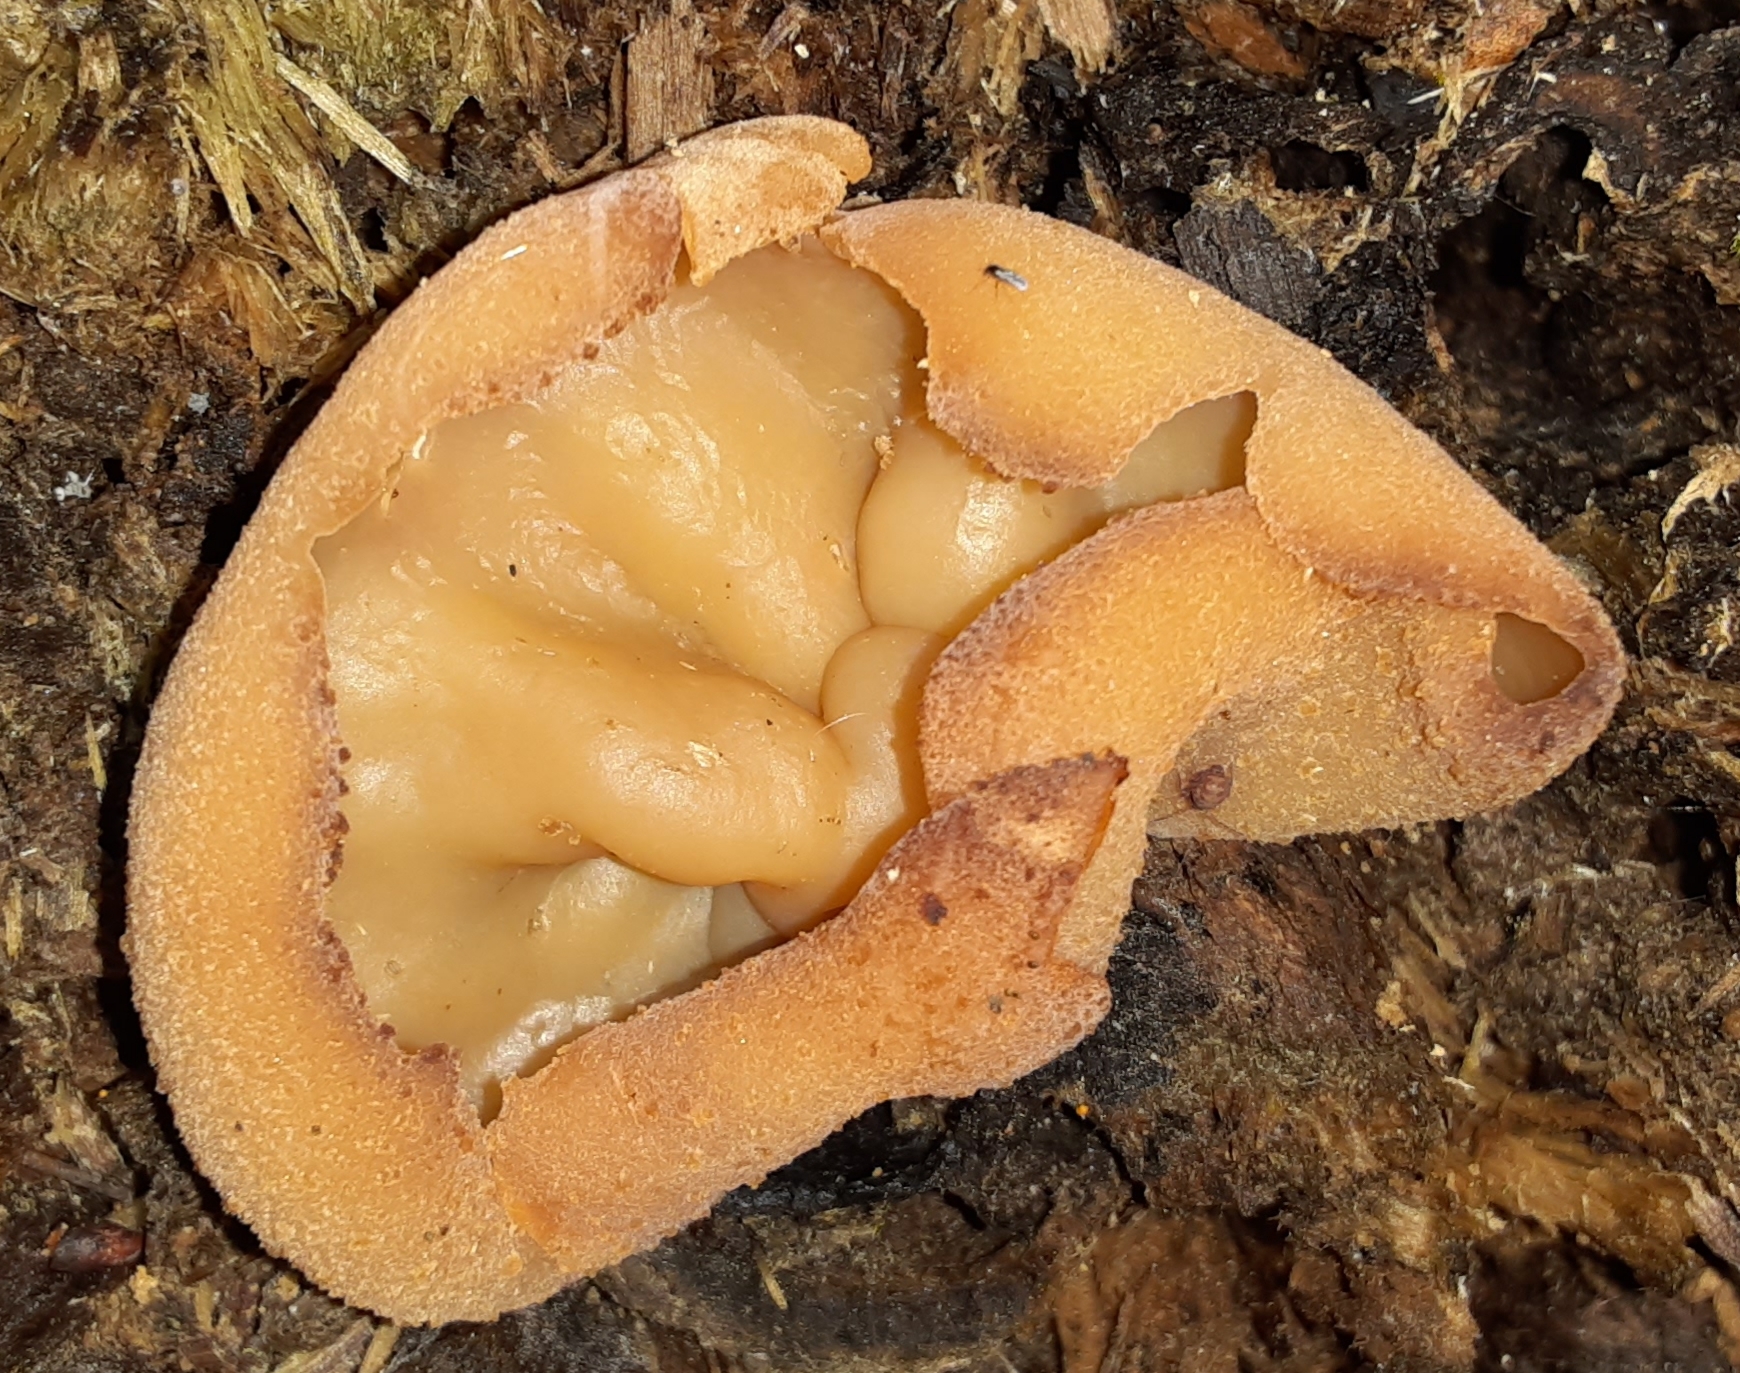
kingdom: Fungi
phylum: Ascomycota
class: Pezizomycetes
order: Pezizales
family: Pezizaceae
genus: Peziza
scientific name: Peziza varia
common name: Layered cup
